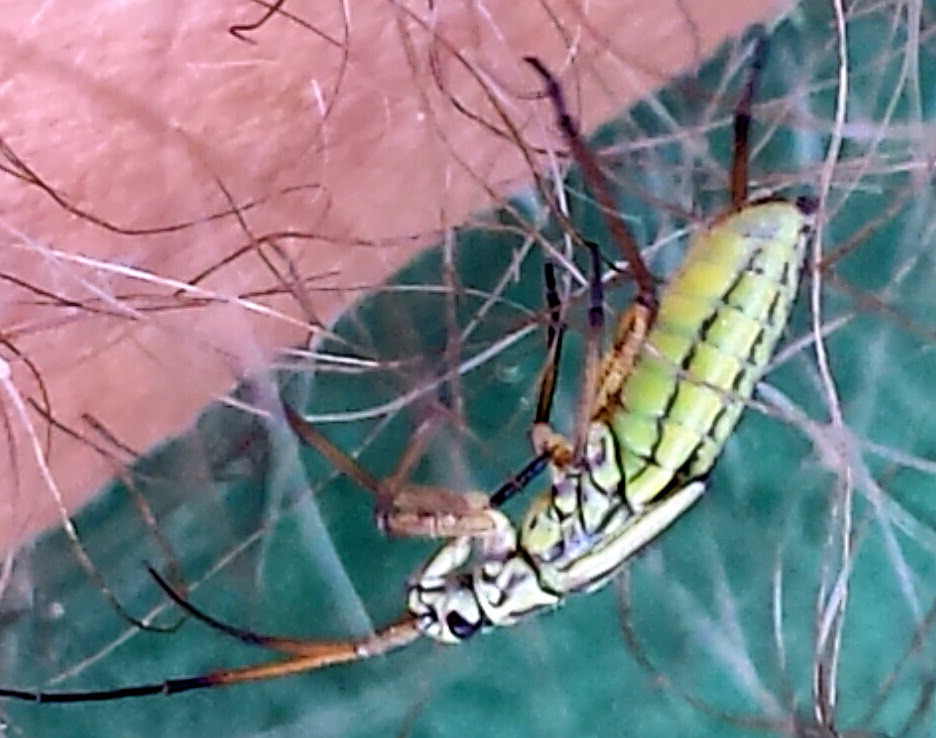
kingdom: Animalia
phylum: Arthropoda
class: Insecta
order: Hemiptera
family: Miridae
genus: Leptopterna
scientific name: Leptopterna dolabrata
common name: Meadow plant bug
